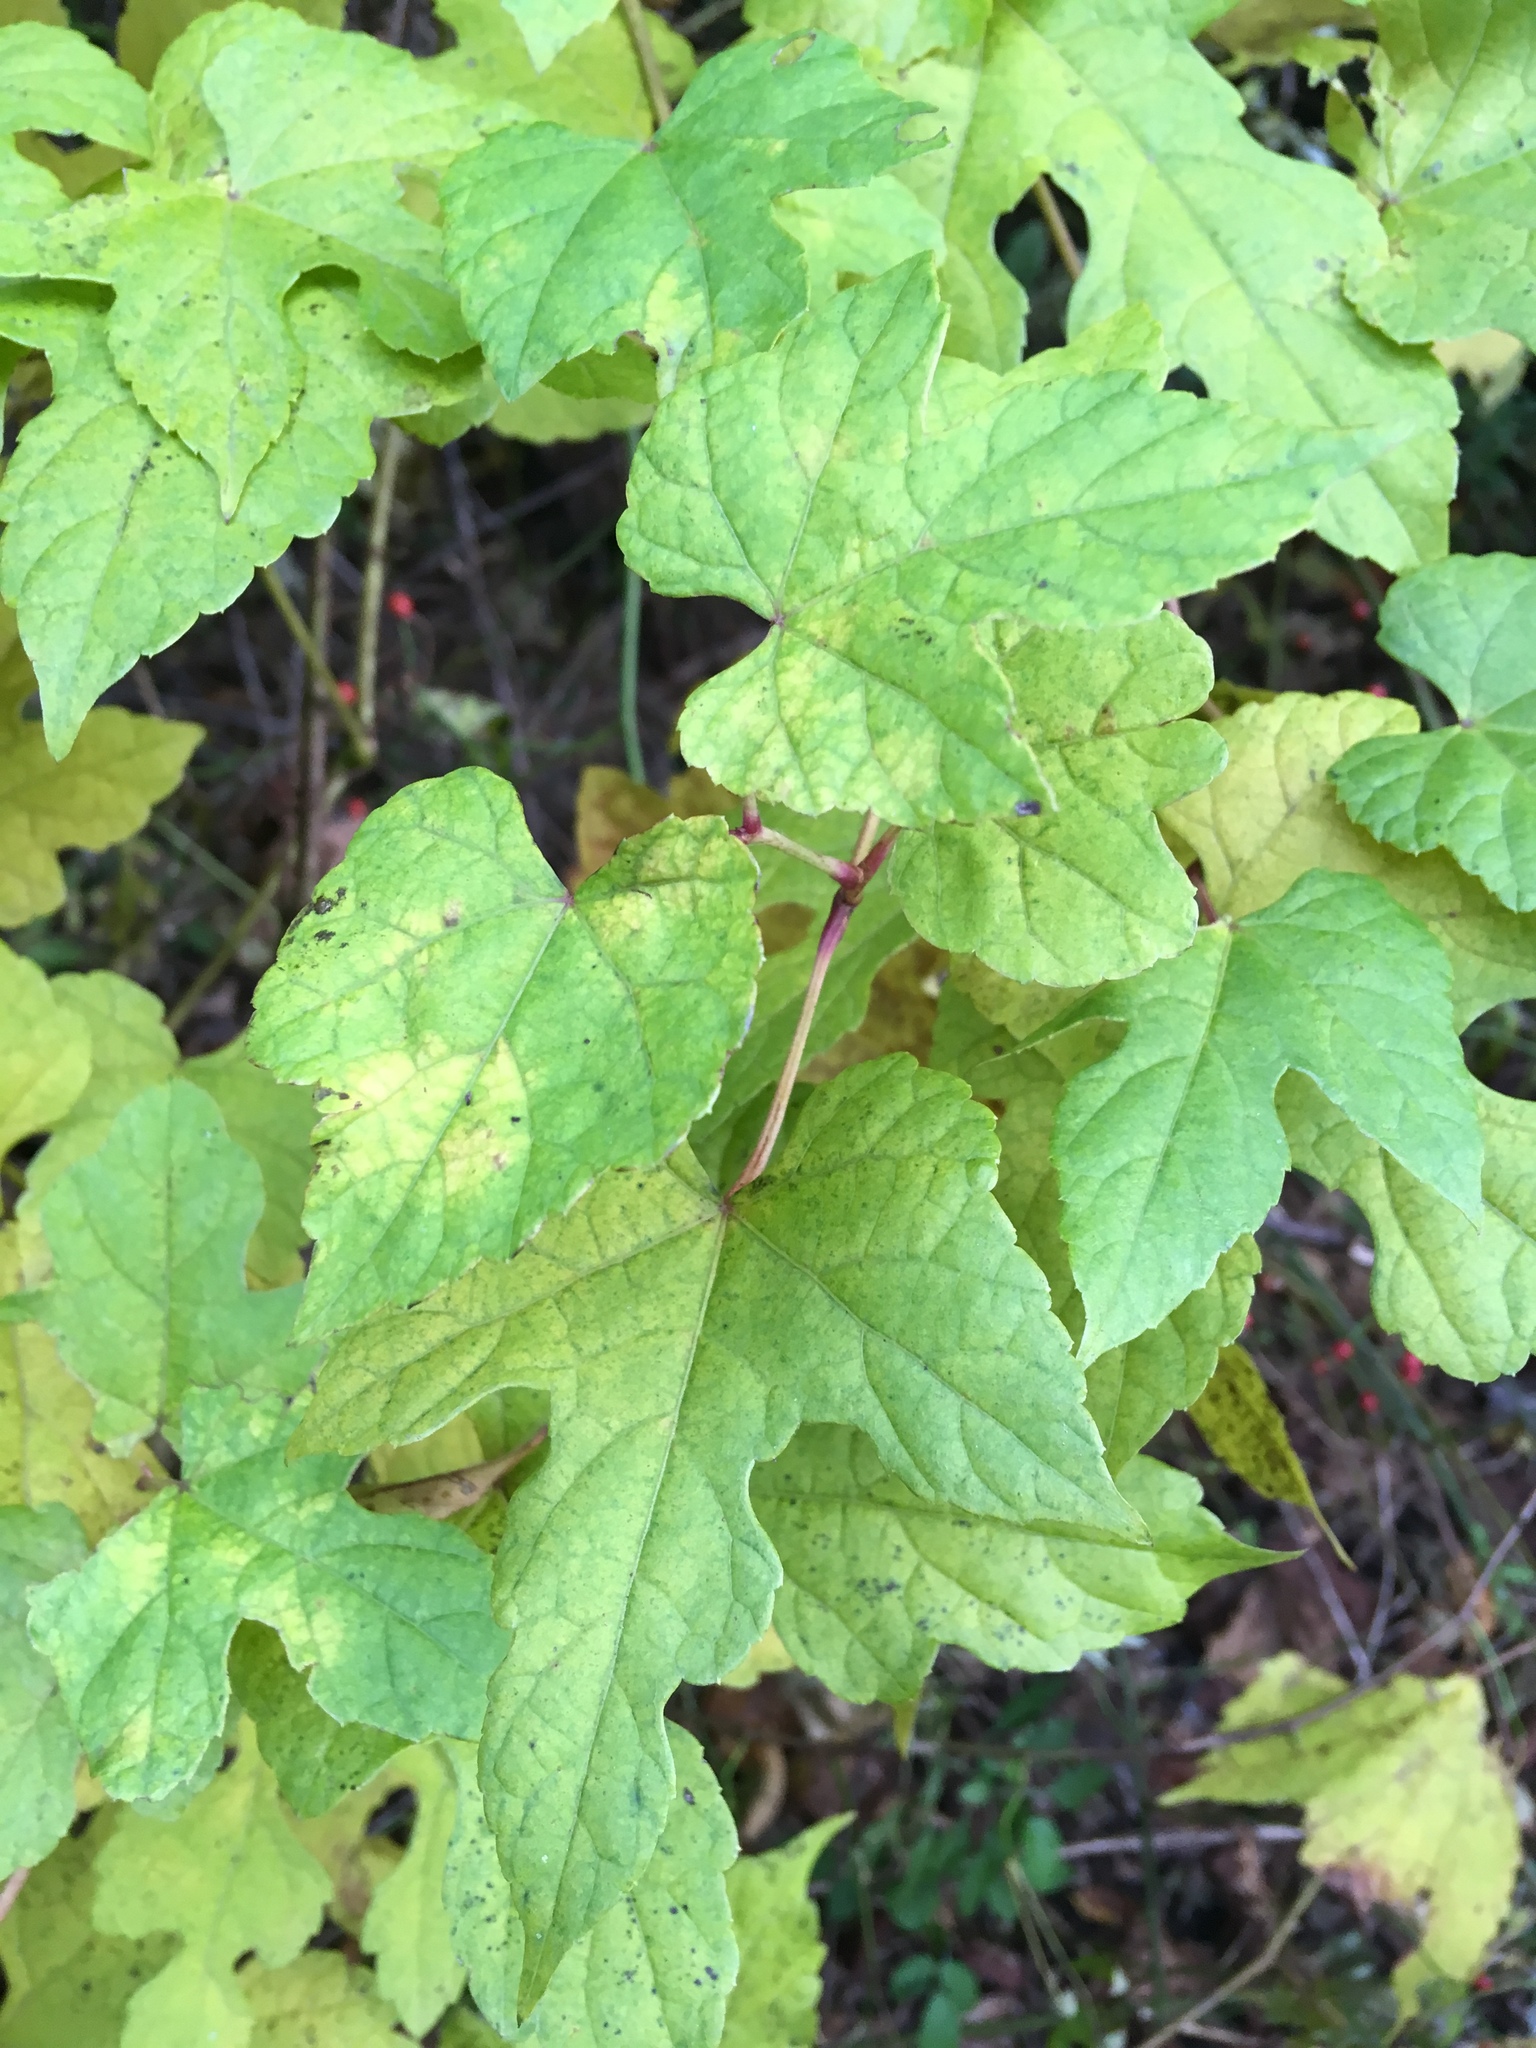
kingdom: Plantae
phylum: Tracheophyta
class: Magnoliopsida
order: Vitales
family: Vitaceae
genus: Ampelopsis
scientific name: Ampelopsis glandulosa
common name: Amur peppervine
